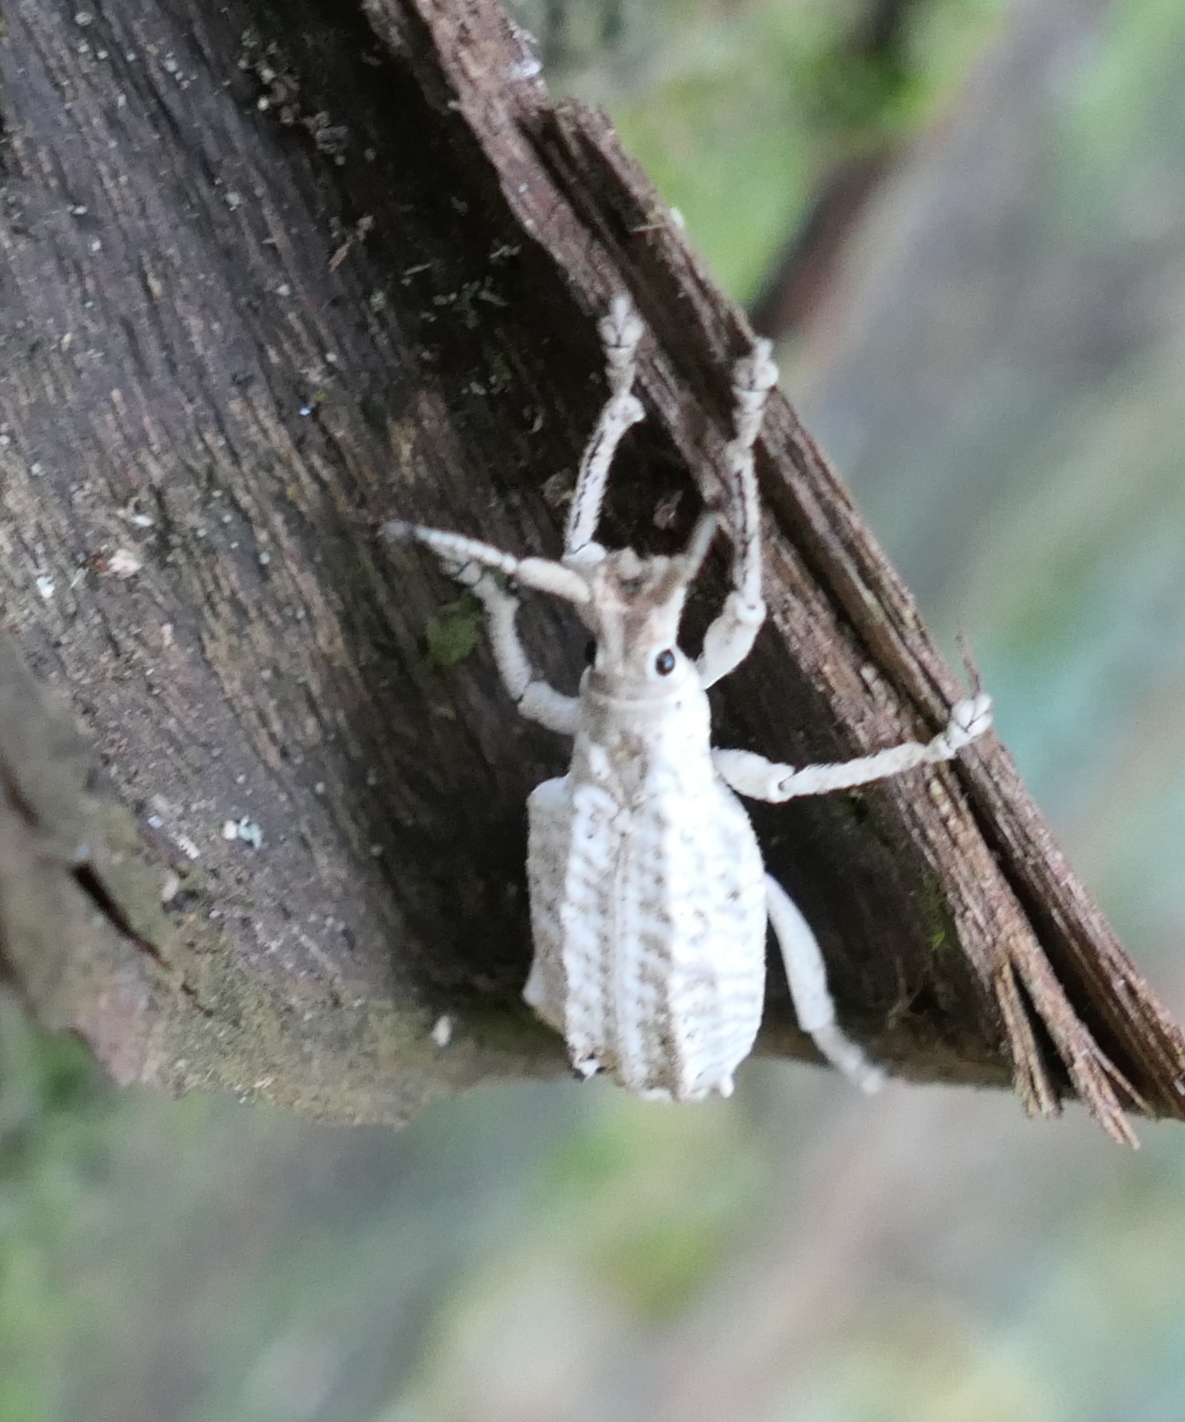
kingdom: Animalia
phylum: Arthropoda
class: Insecta
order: Coleoptera
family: Curculionidae
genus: Compsus
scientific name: Compsus niveus
